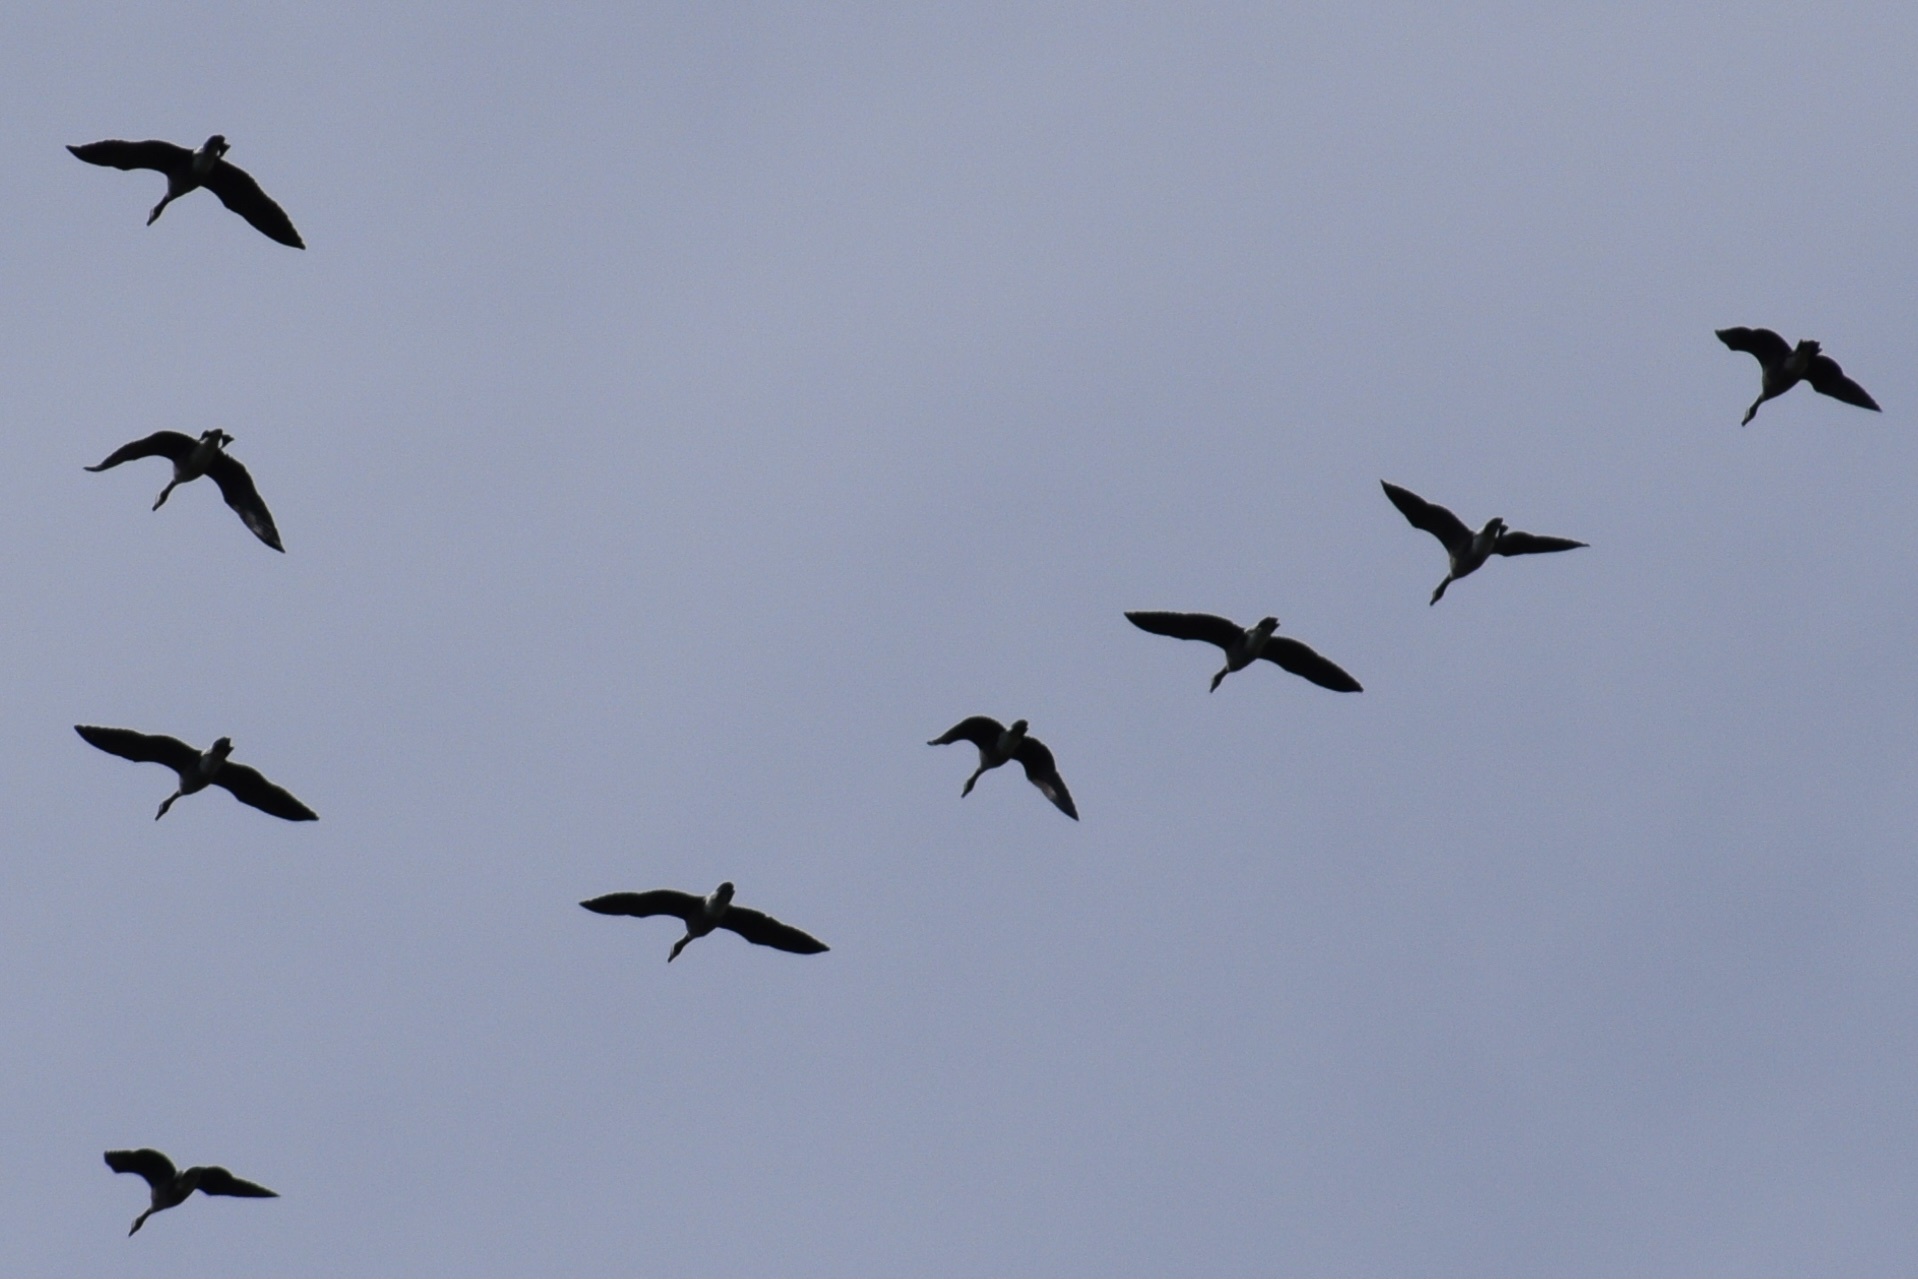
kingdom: Animalia
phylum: Chordata
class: Aves
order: Anseriformes
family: Anatidae
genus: Branta
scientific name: Branta canadensis
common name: Canada goose
